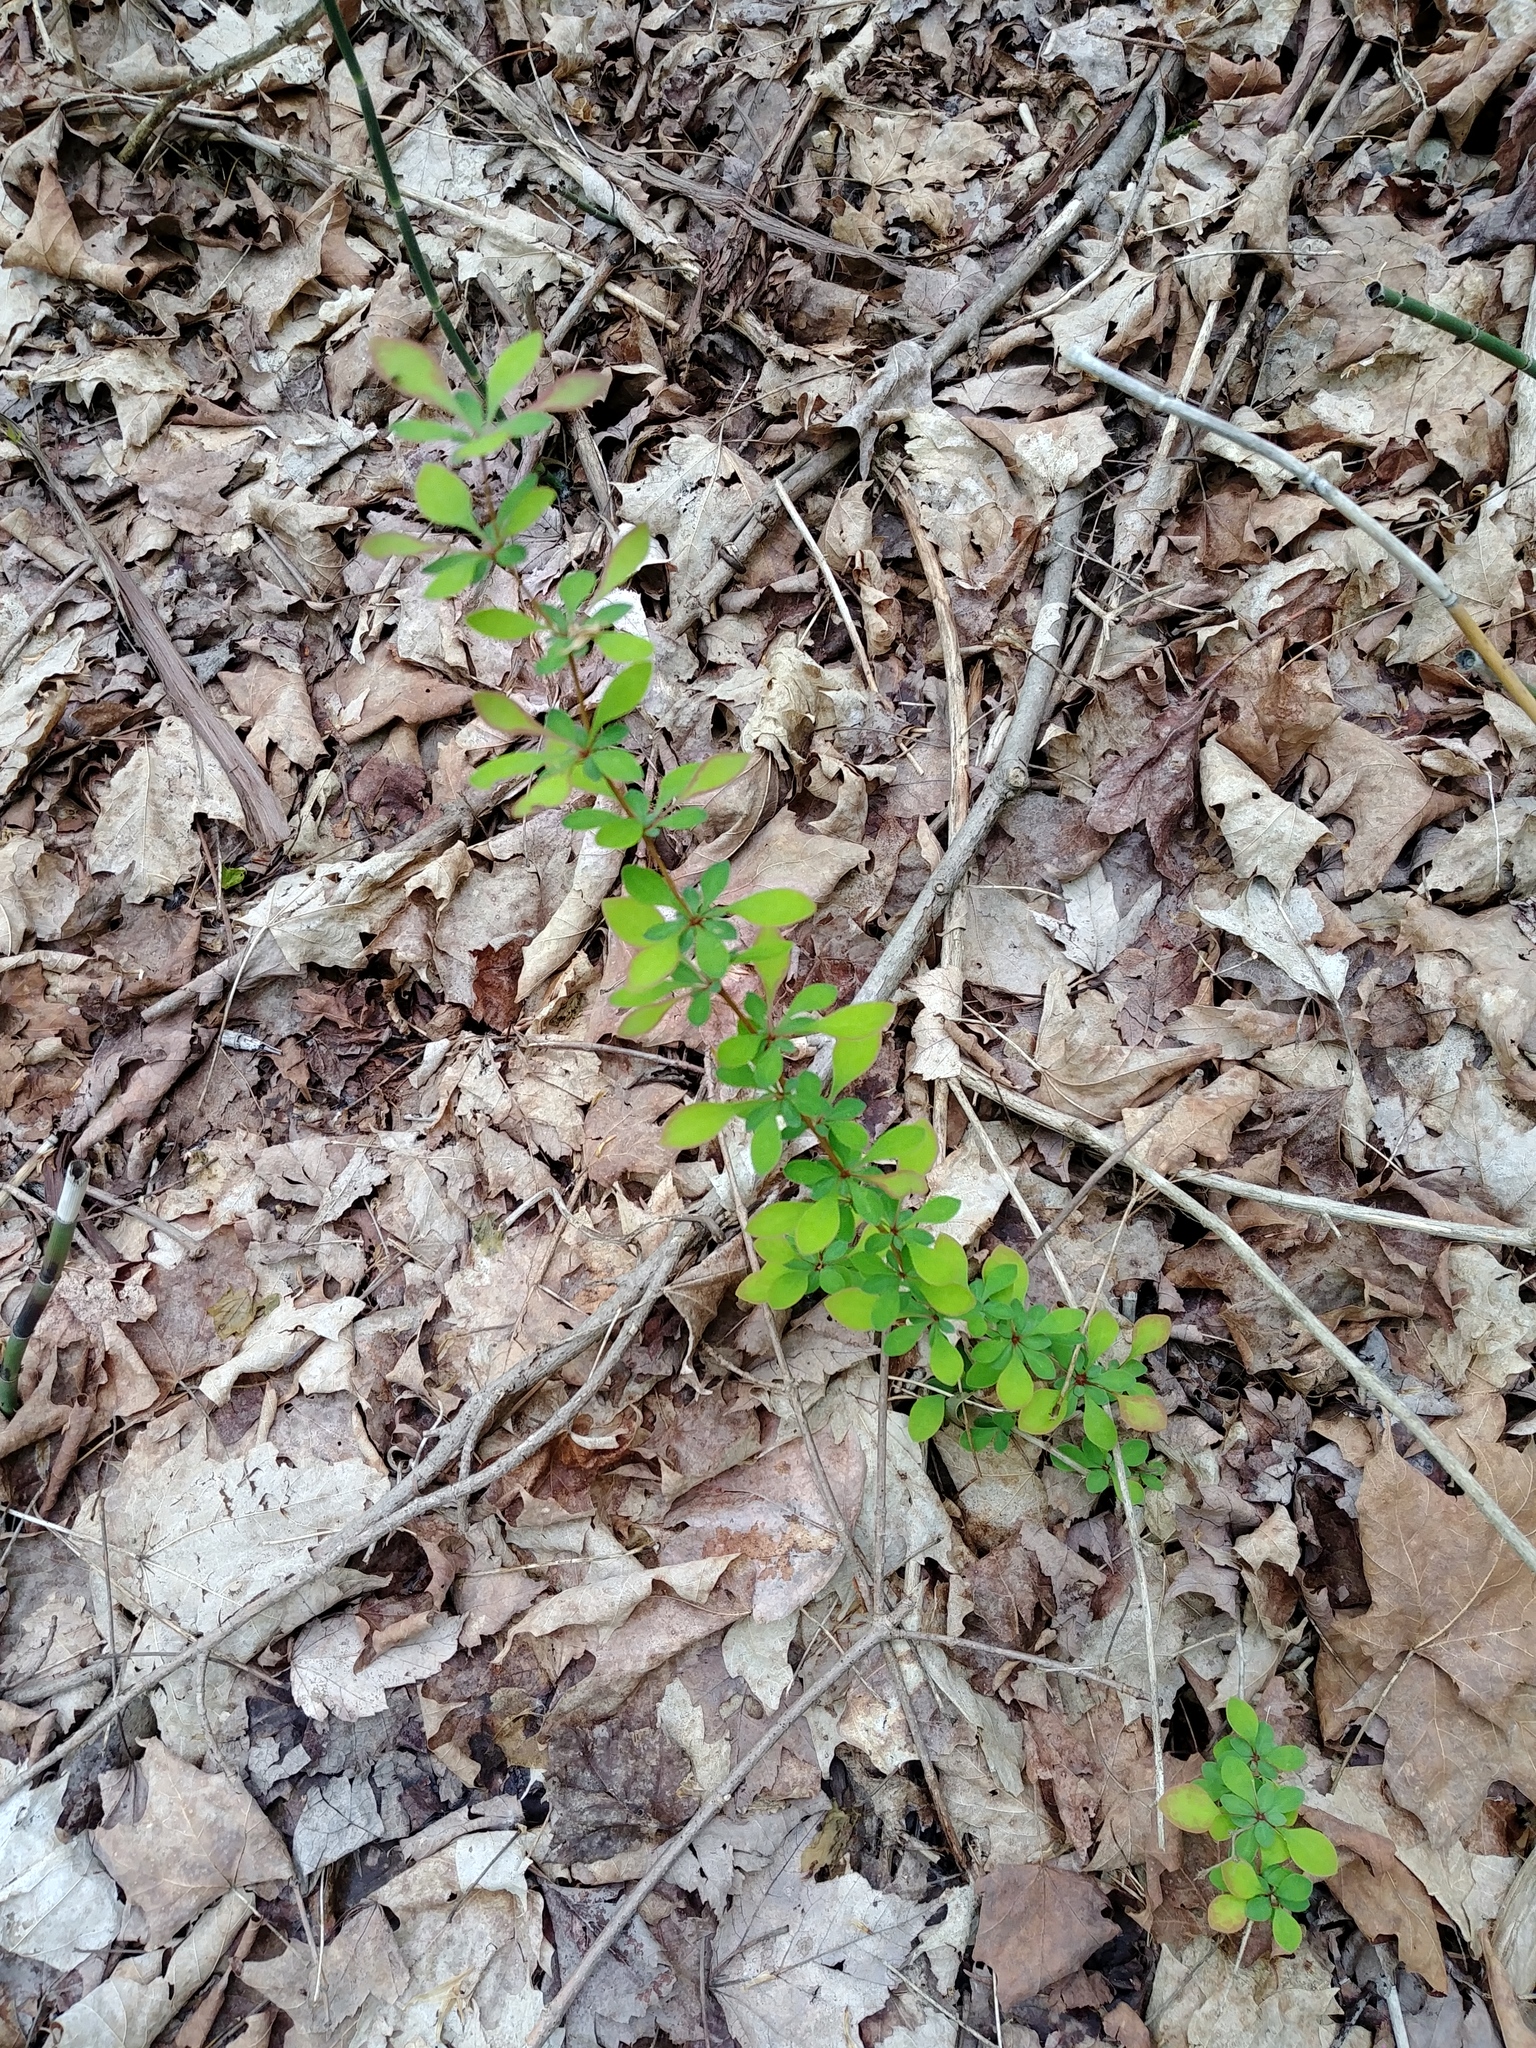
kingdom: Plantae
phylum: Tracheophyta
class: Magnoliopsida
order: Ranunculales
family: Berberidaceae
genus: Berberis
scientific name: Berberis thunbergii
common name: Japanese barberry
